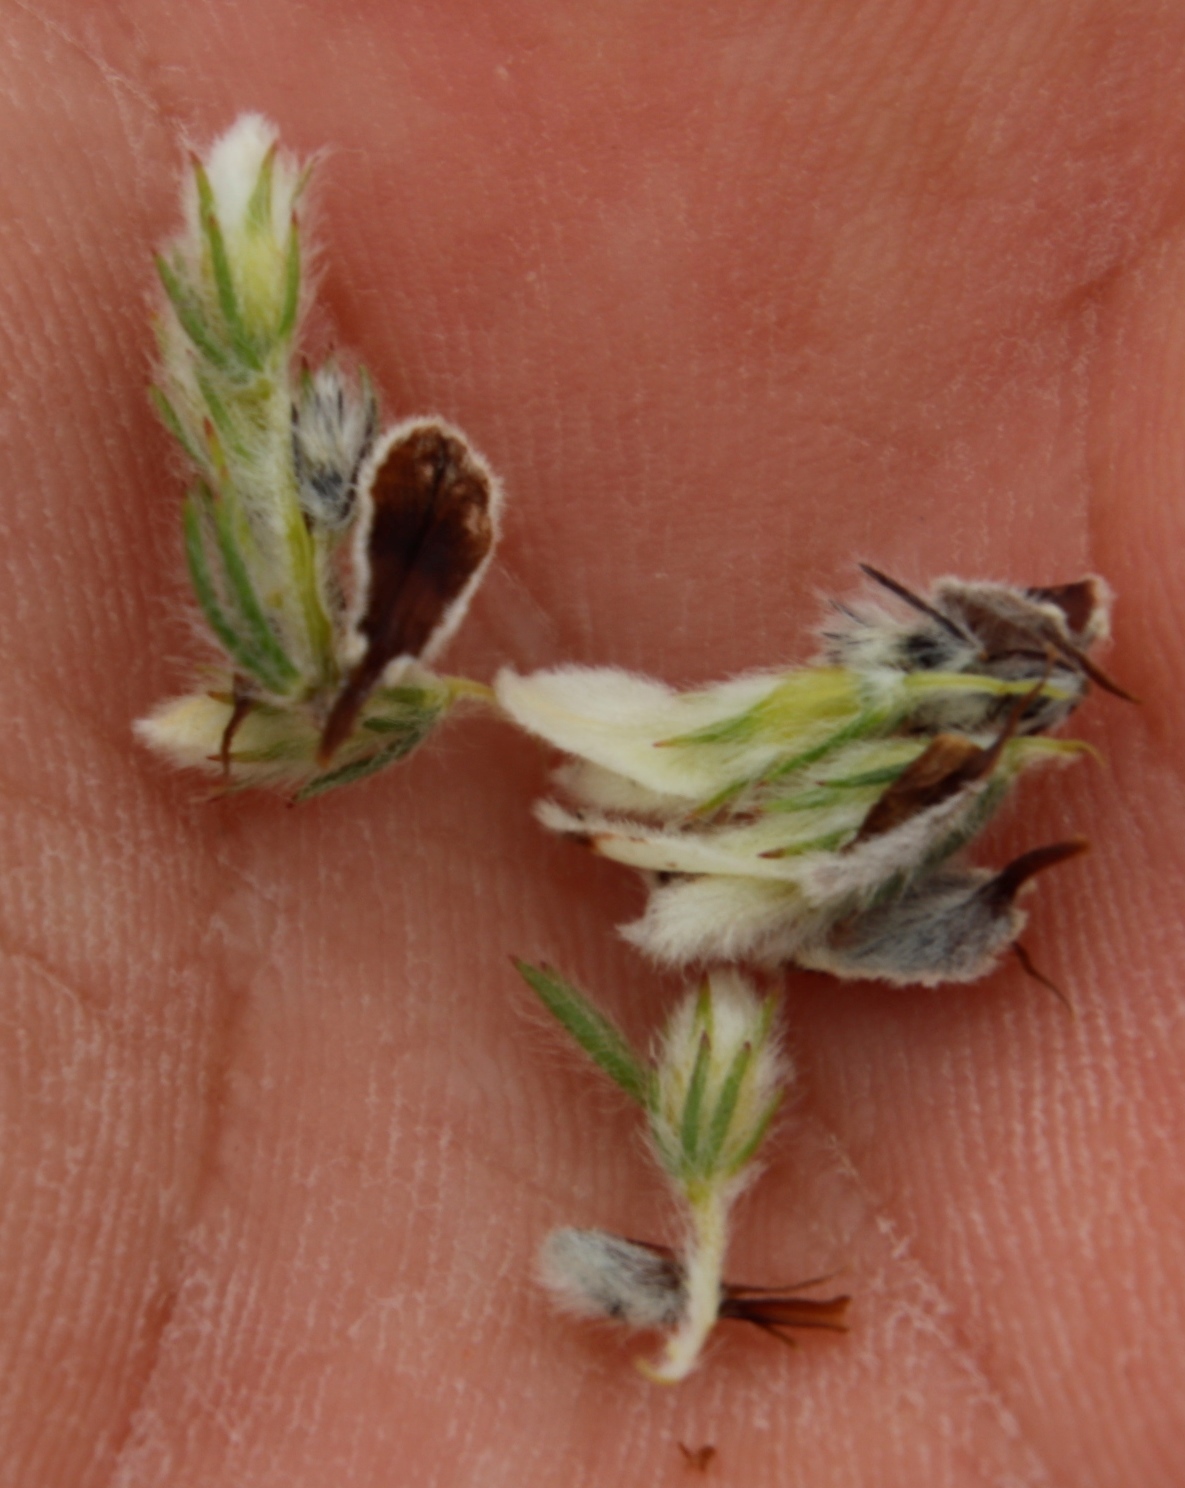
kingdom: Plantae
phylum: Tracheophyta
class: Magnoliopsida
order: Fabales
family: Fabaceae
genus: Aspalathus
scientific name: Aspalathus barbigera
